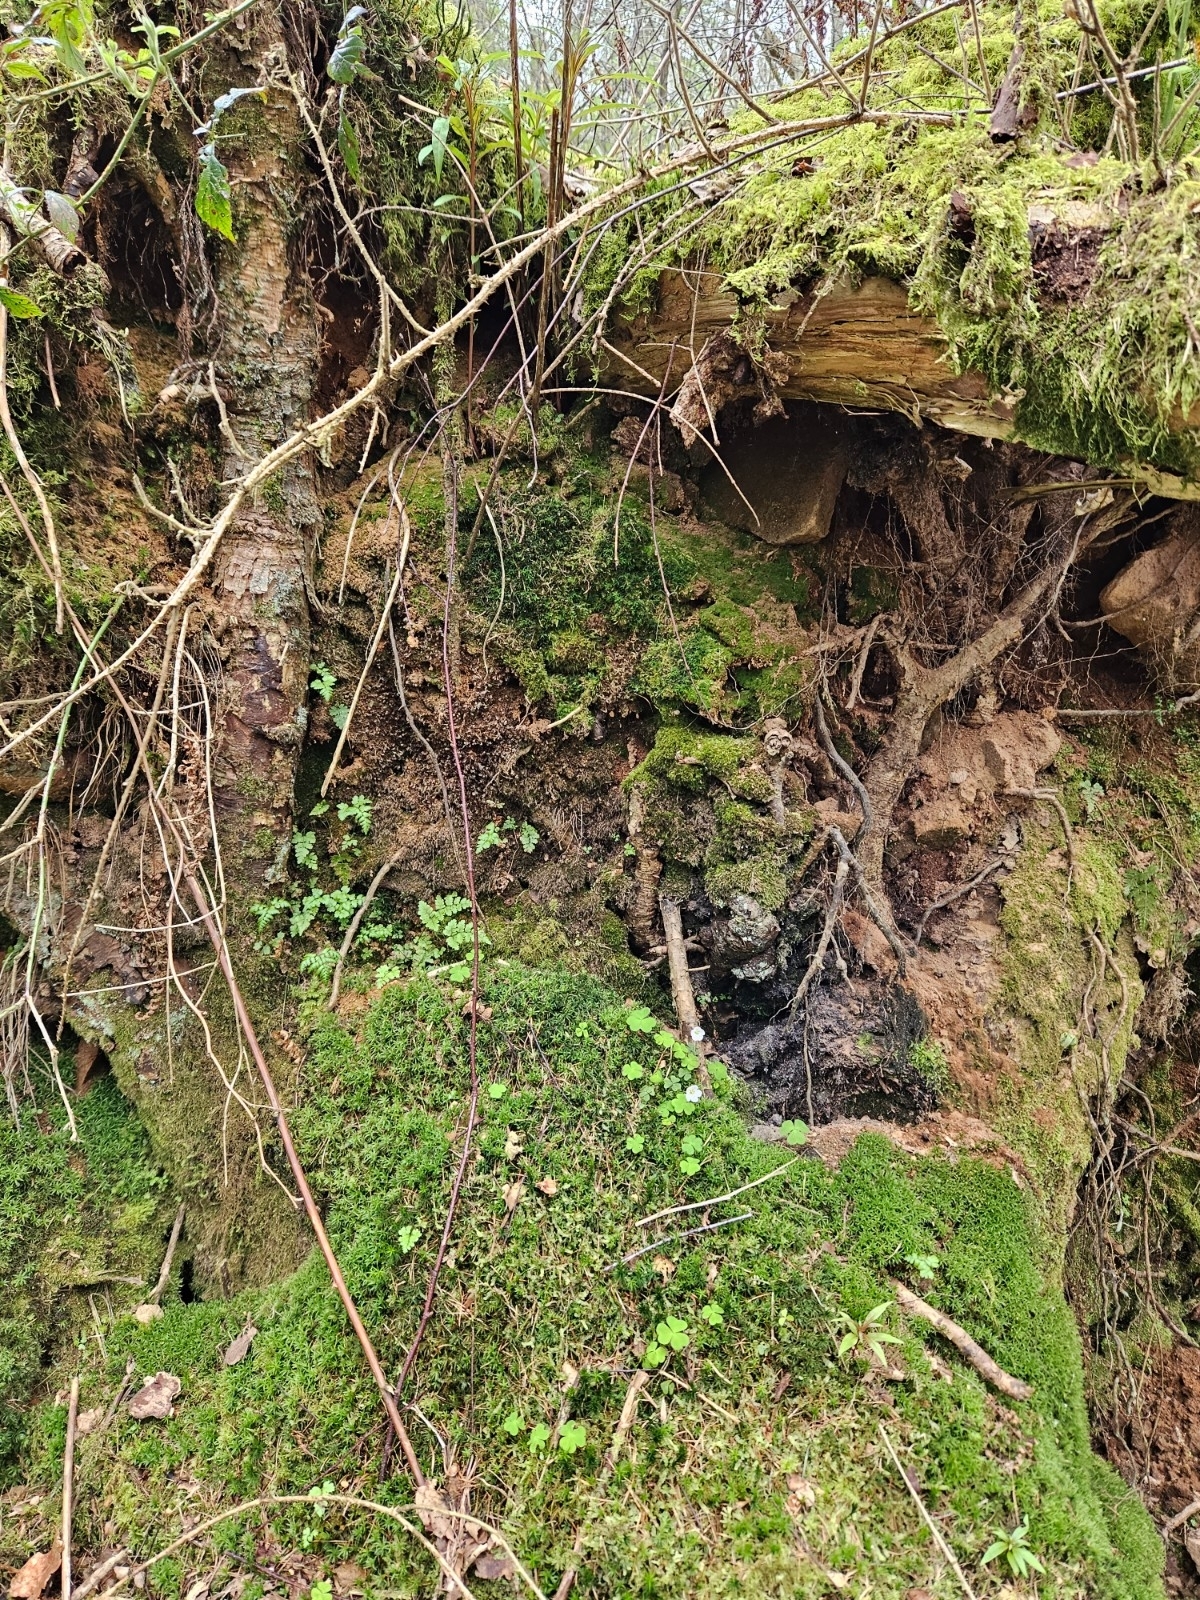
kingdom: Plantae
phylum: Bryophyta
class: Polytrichopsida
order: Polytrichales
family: Polytrichaceae
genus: Pogonatum
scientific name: Pogonatum aloides
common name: Aloe haircap
